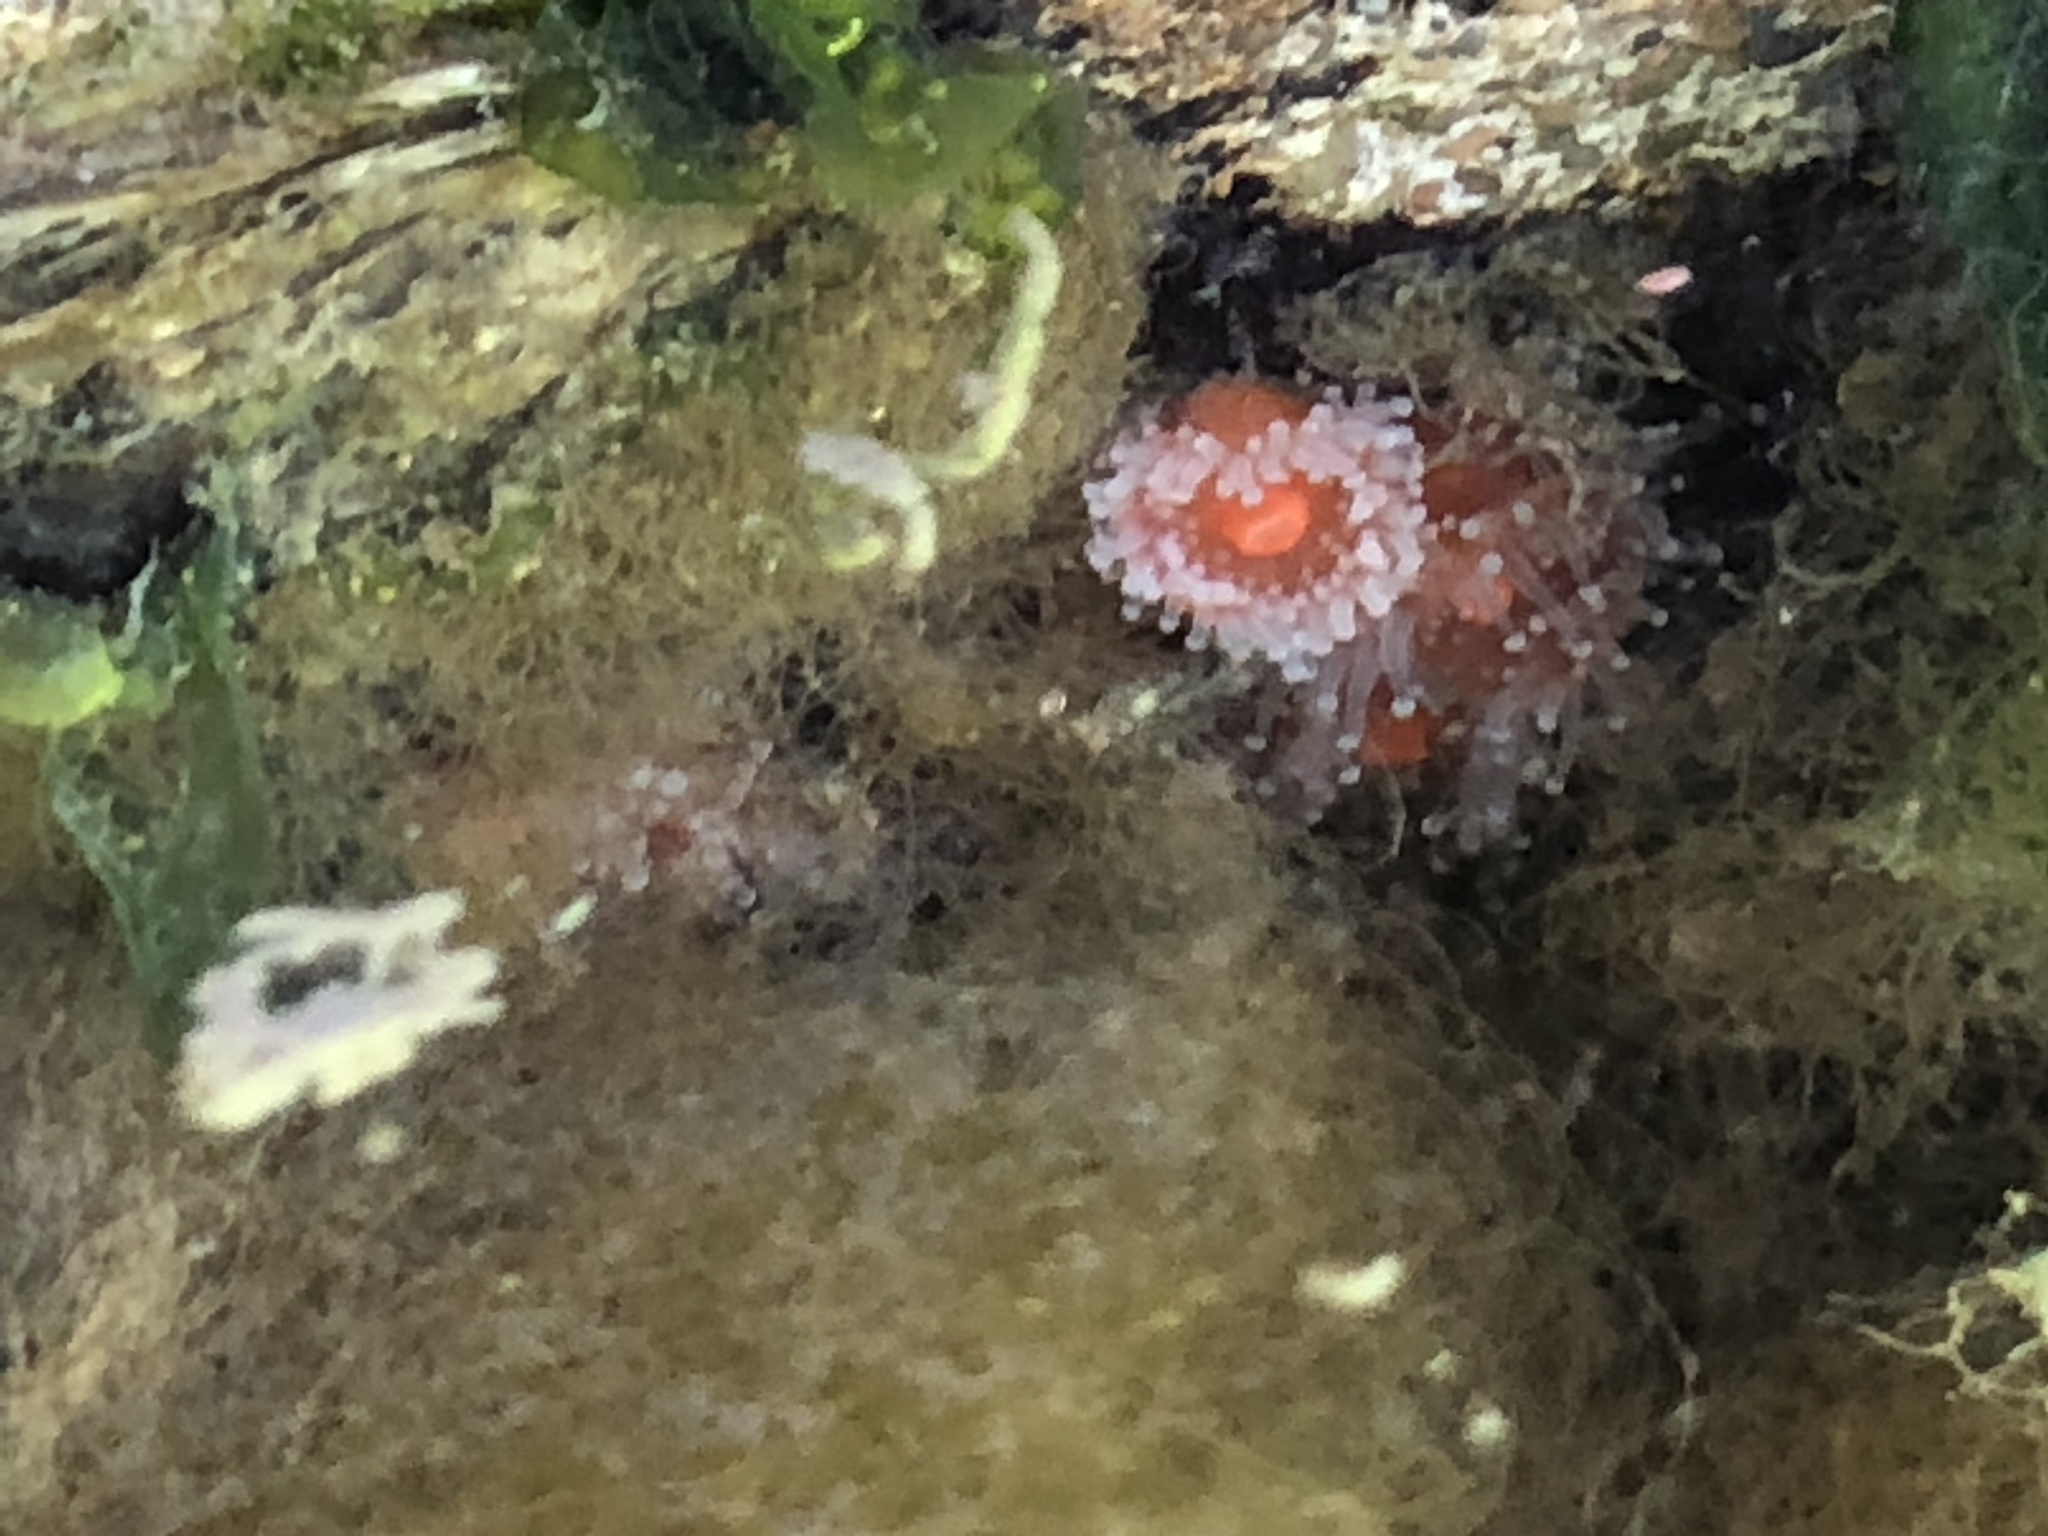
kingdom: Animalia
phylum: Cnidaria
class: Anthozoa
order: Corallimorpharia
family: Corallimorphidae
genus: Corynactis
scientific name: Corynactis californica
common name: Strawberry corallimorpharian
